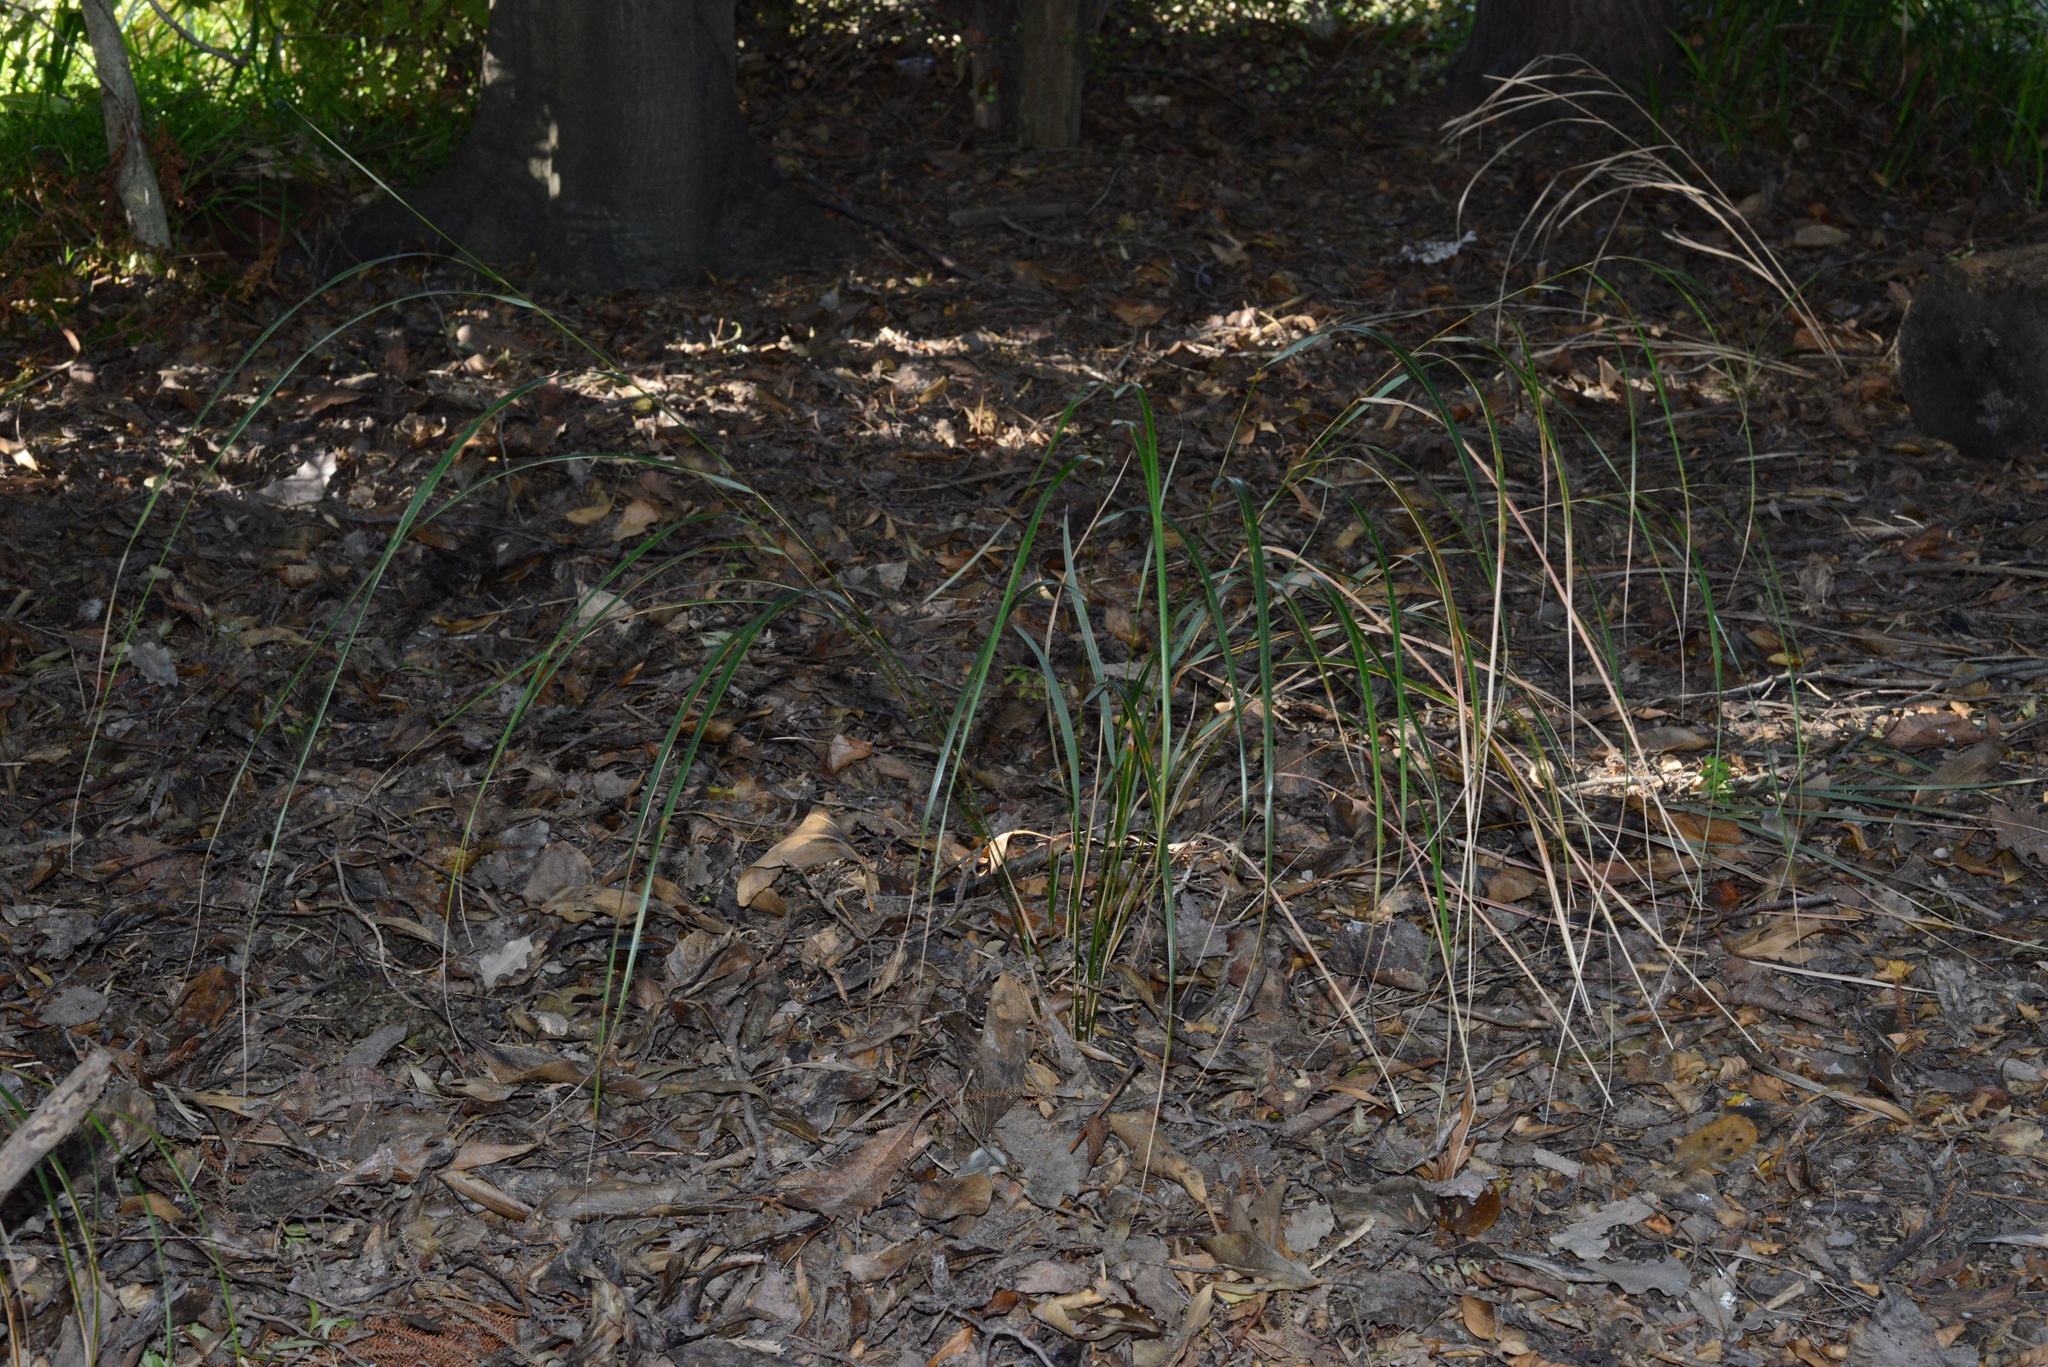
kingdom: Plantae
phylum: Tracheophyta
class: Liliopsida
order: Poales
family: Poaceae
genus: Anemanthele
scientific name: Anemanthele lessoniana
